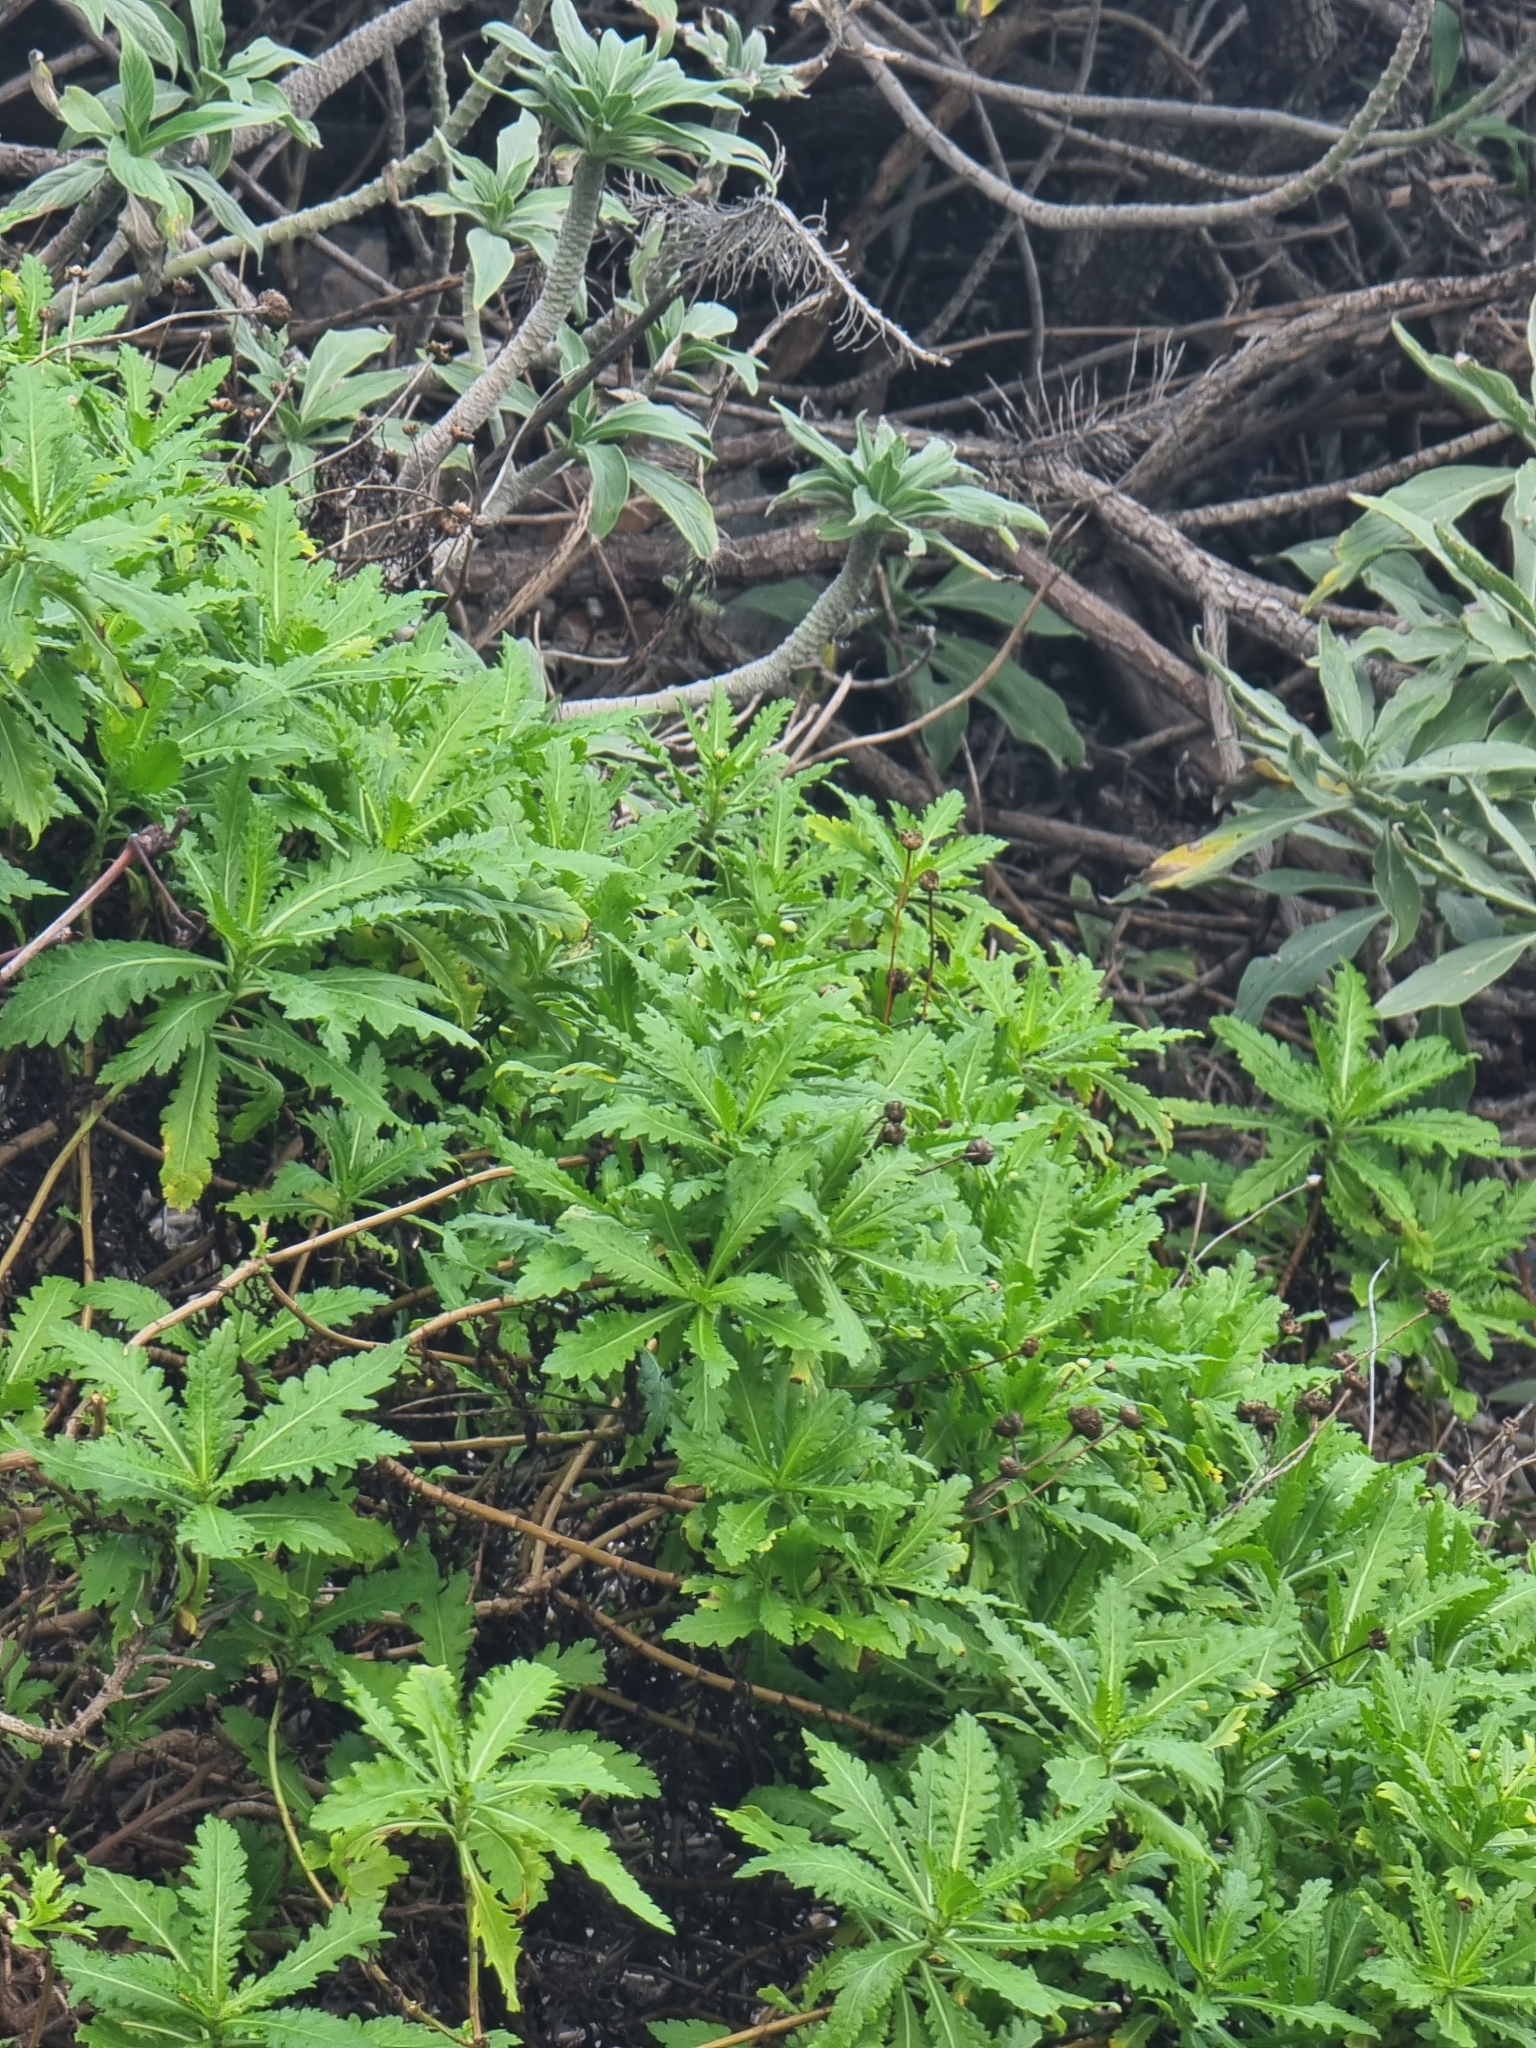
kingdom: Plantae
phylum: Tracheophyta
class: Magnoliopsida
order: Asterales
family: Asteraceae
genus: Argyranthemum
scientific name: Argyranthemum pinnatifidum
